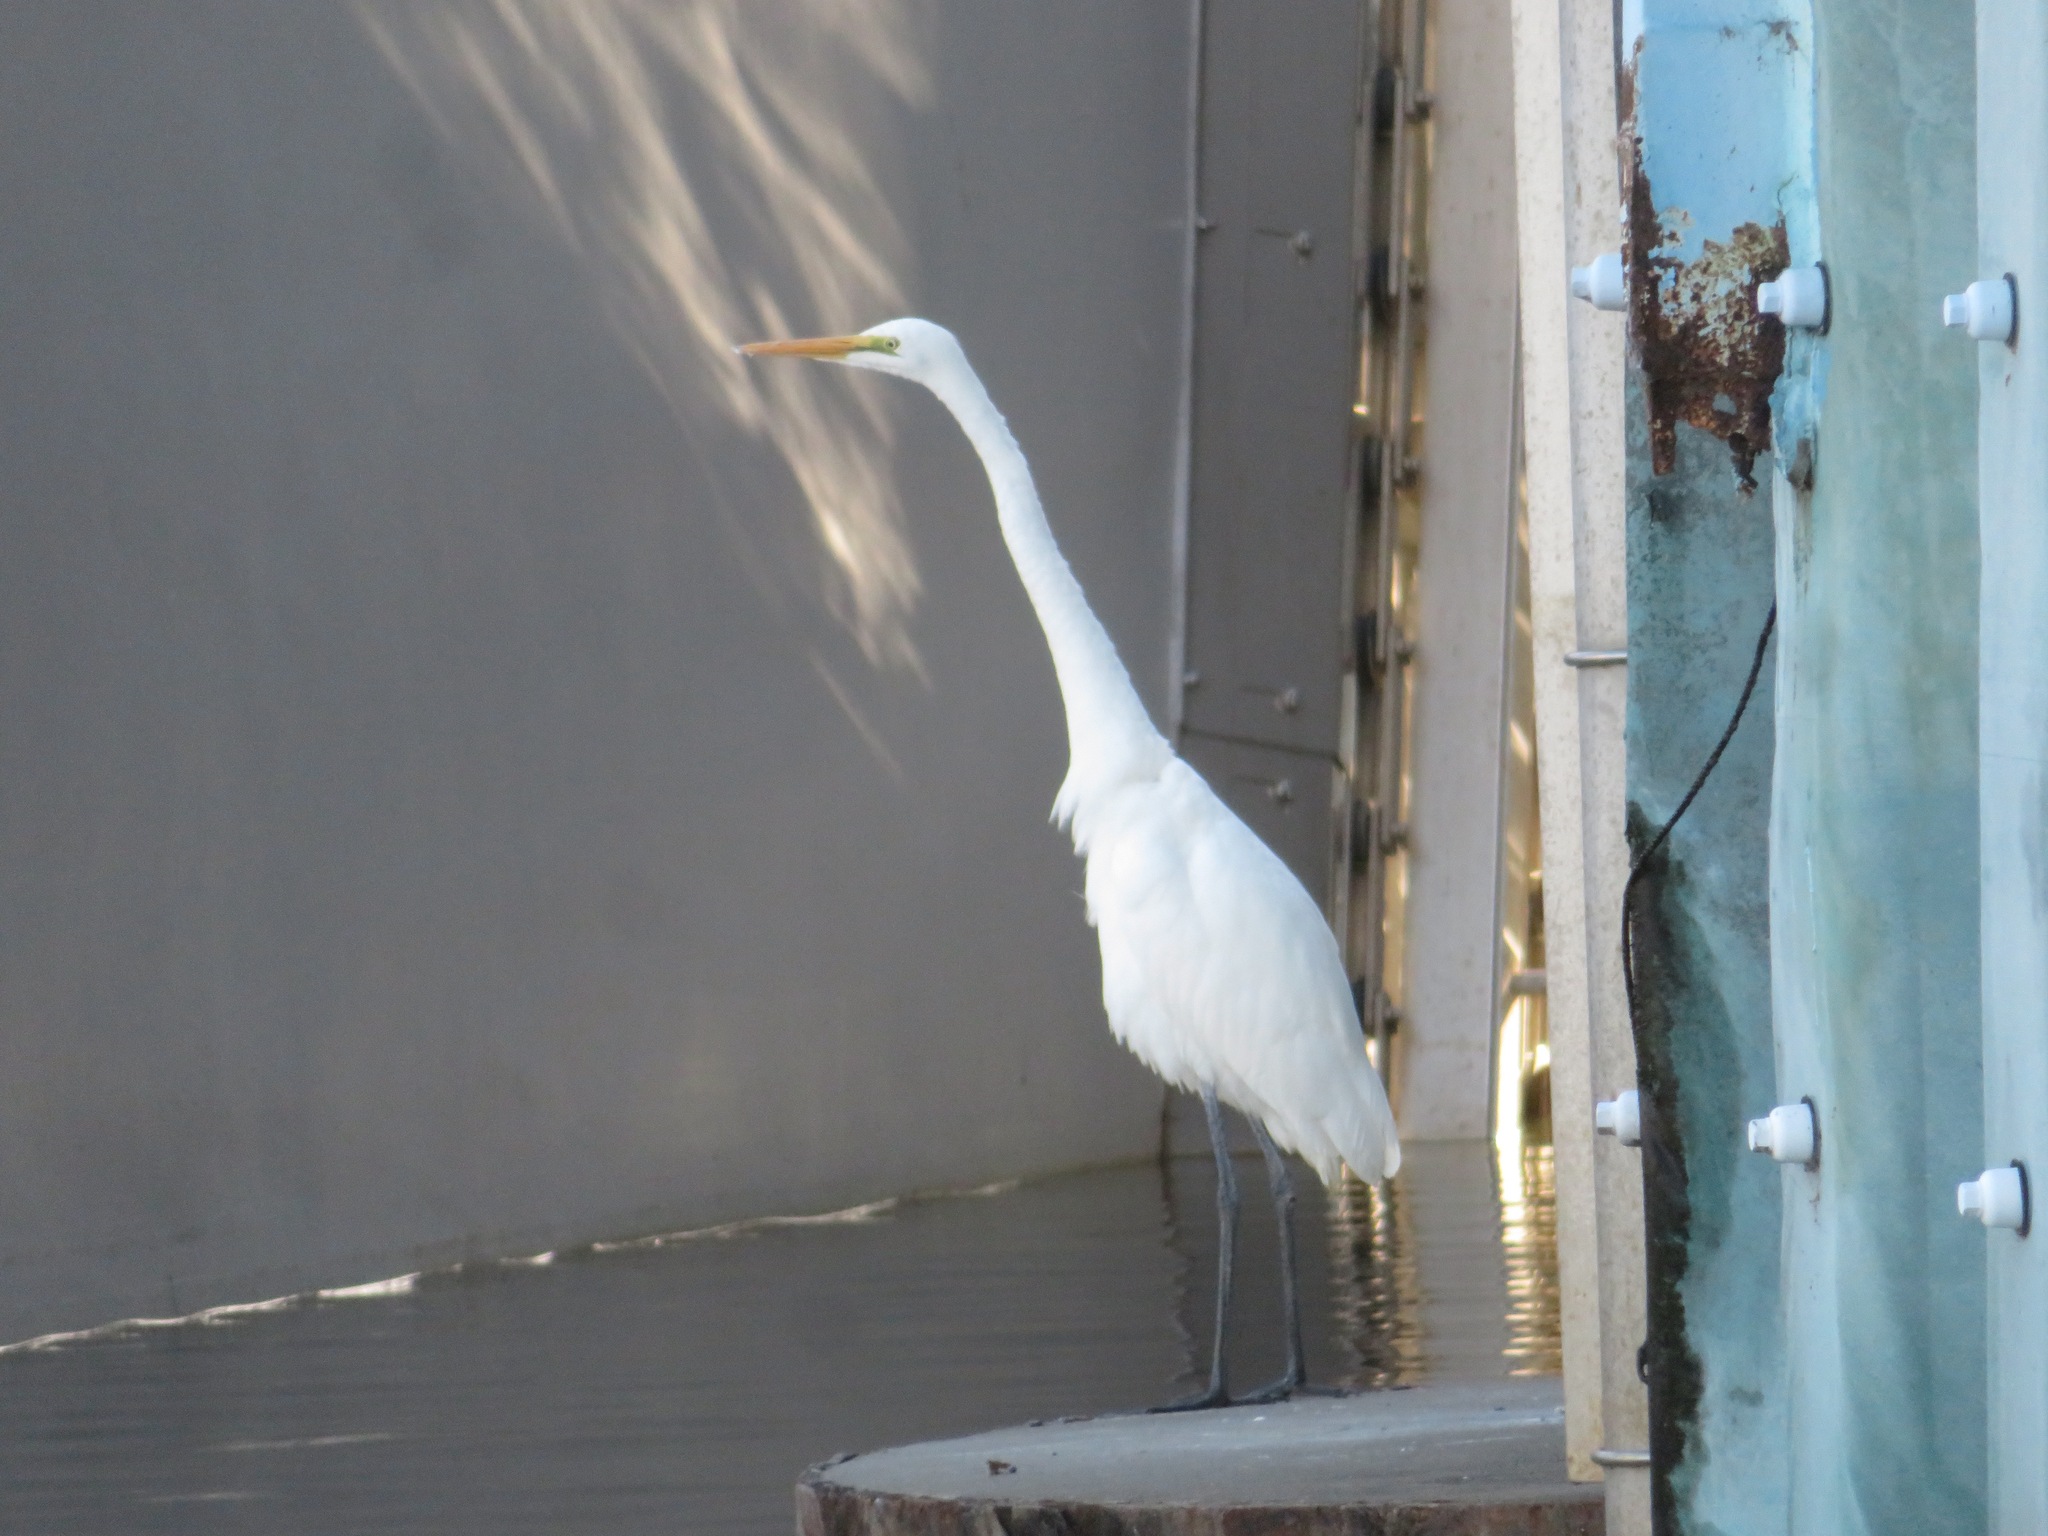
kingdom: Animalia
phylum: Chordata
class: Aves
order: Pelecaniformes
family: Ardeidae
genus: Ardea
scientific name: Ardea alba
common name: Great egret
